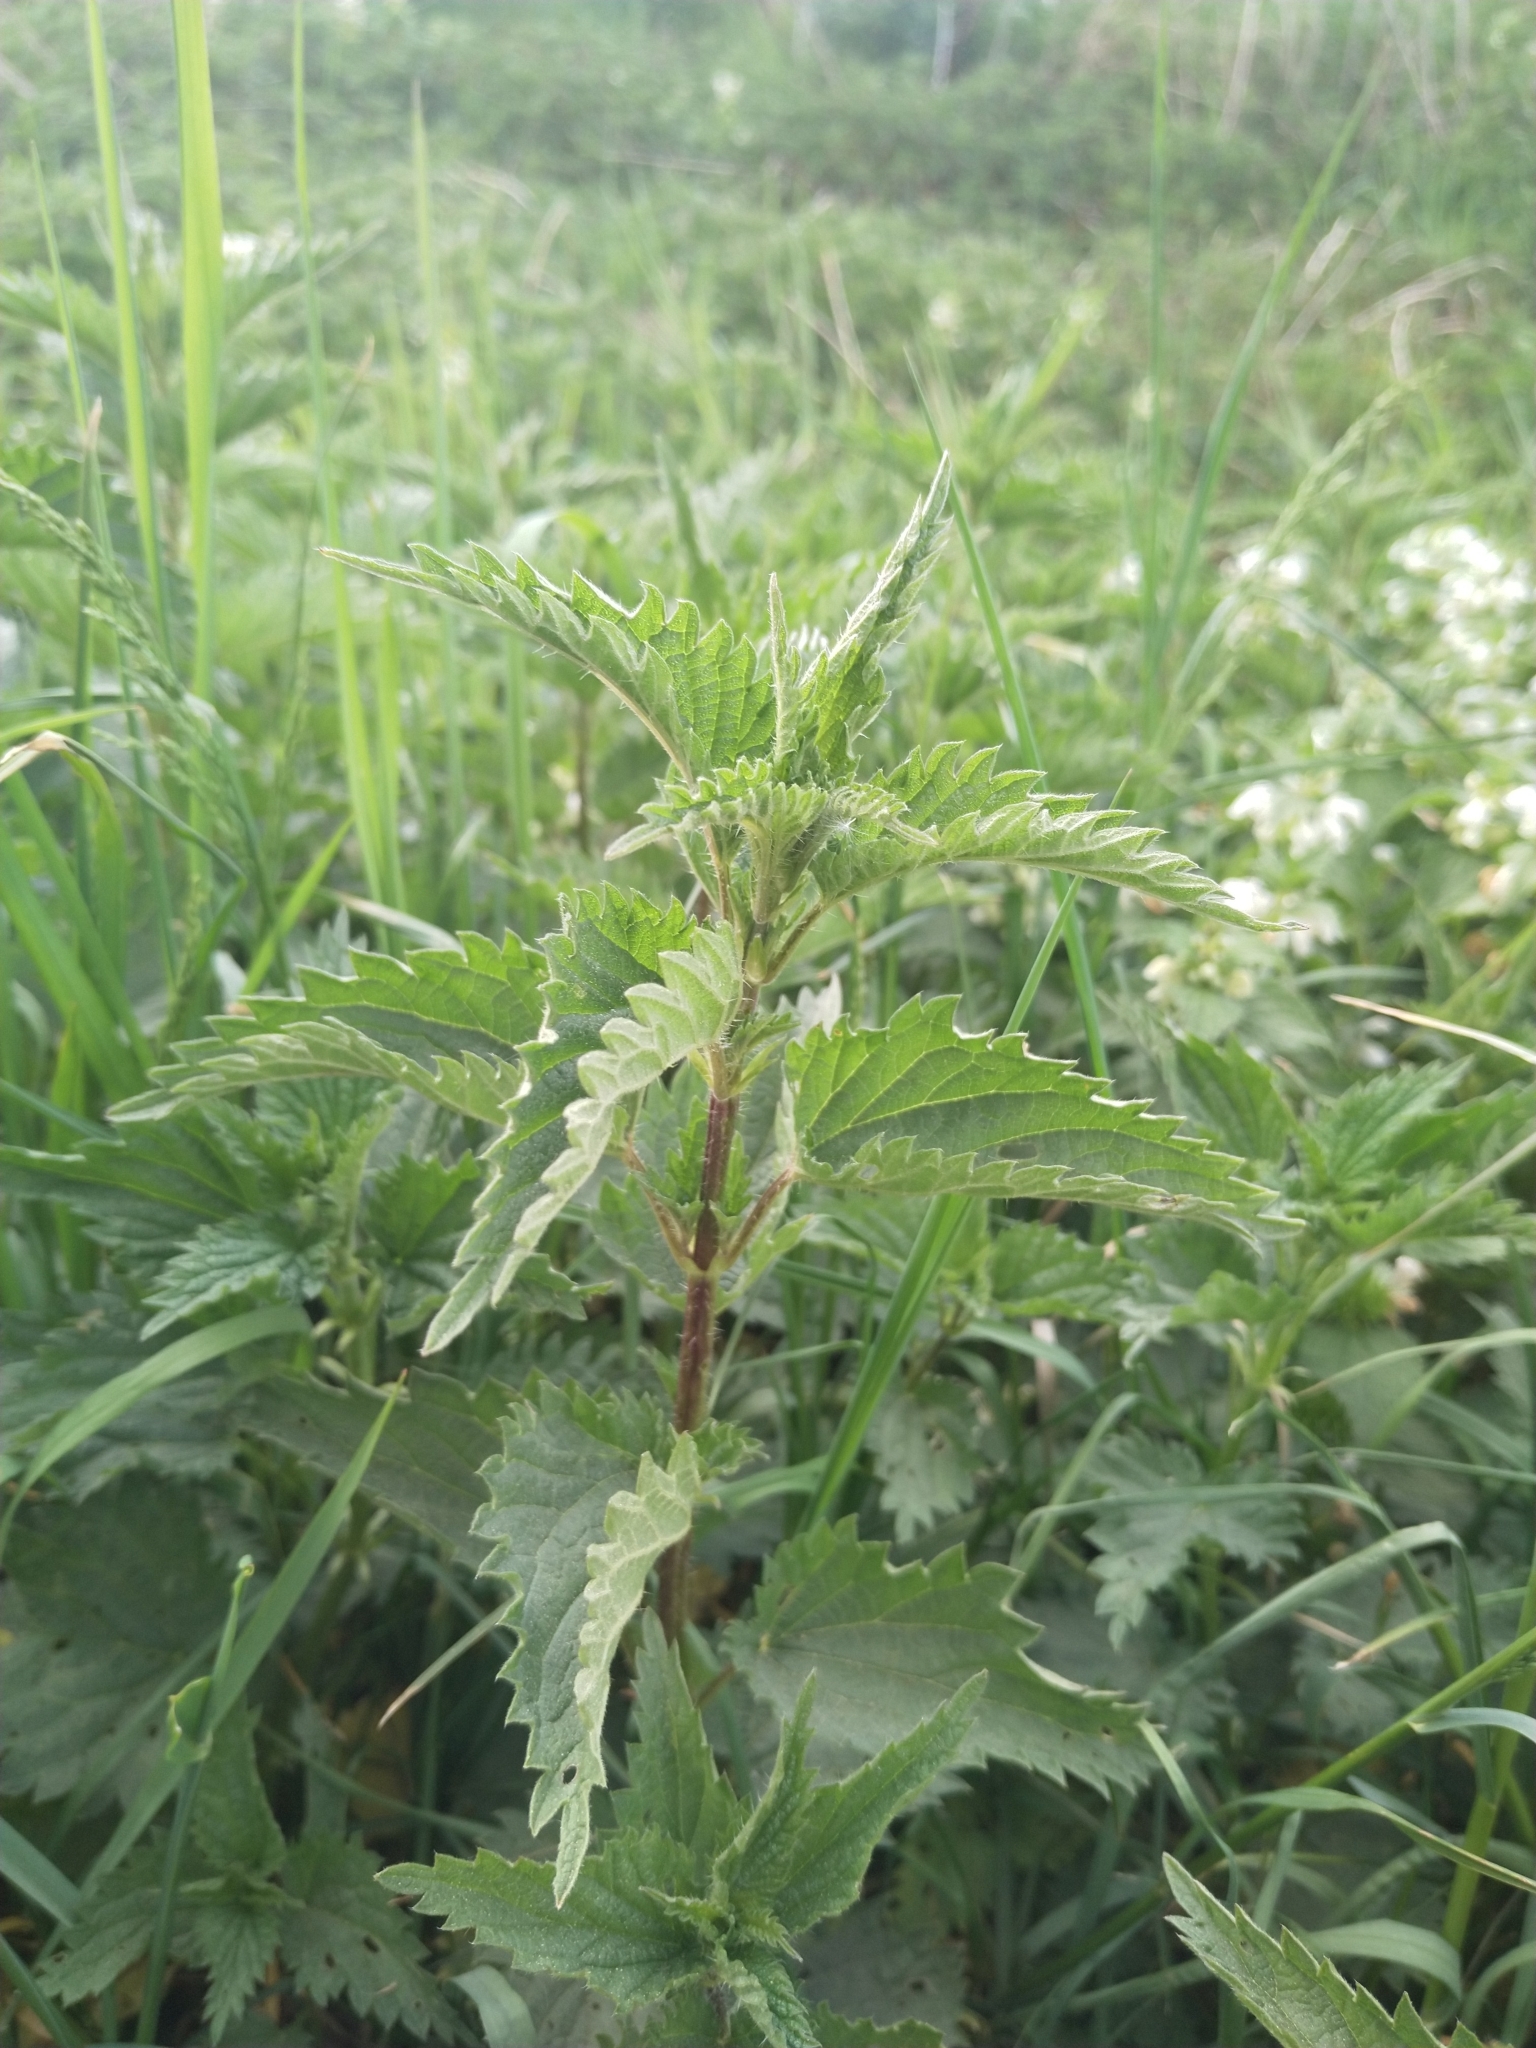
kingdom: Plantae
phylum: Tracheophyta
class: Magnoliopsida
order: Rosales
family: Urticaceae
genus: Urtica
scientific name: Urtica dioica
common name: Common nettle
